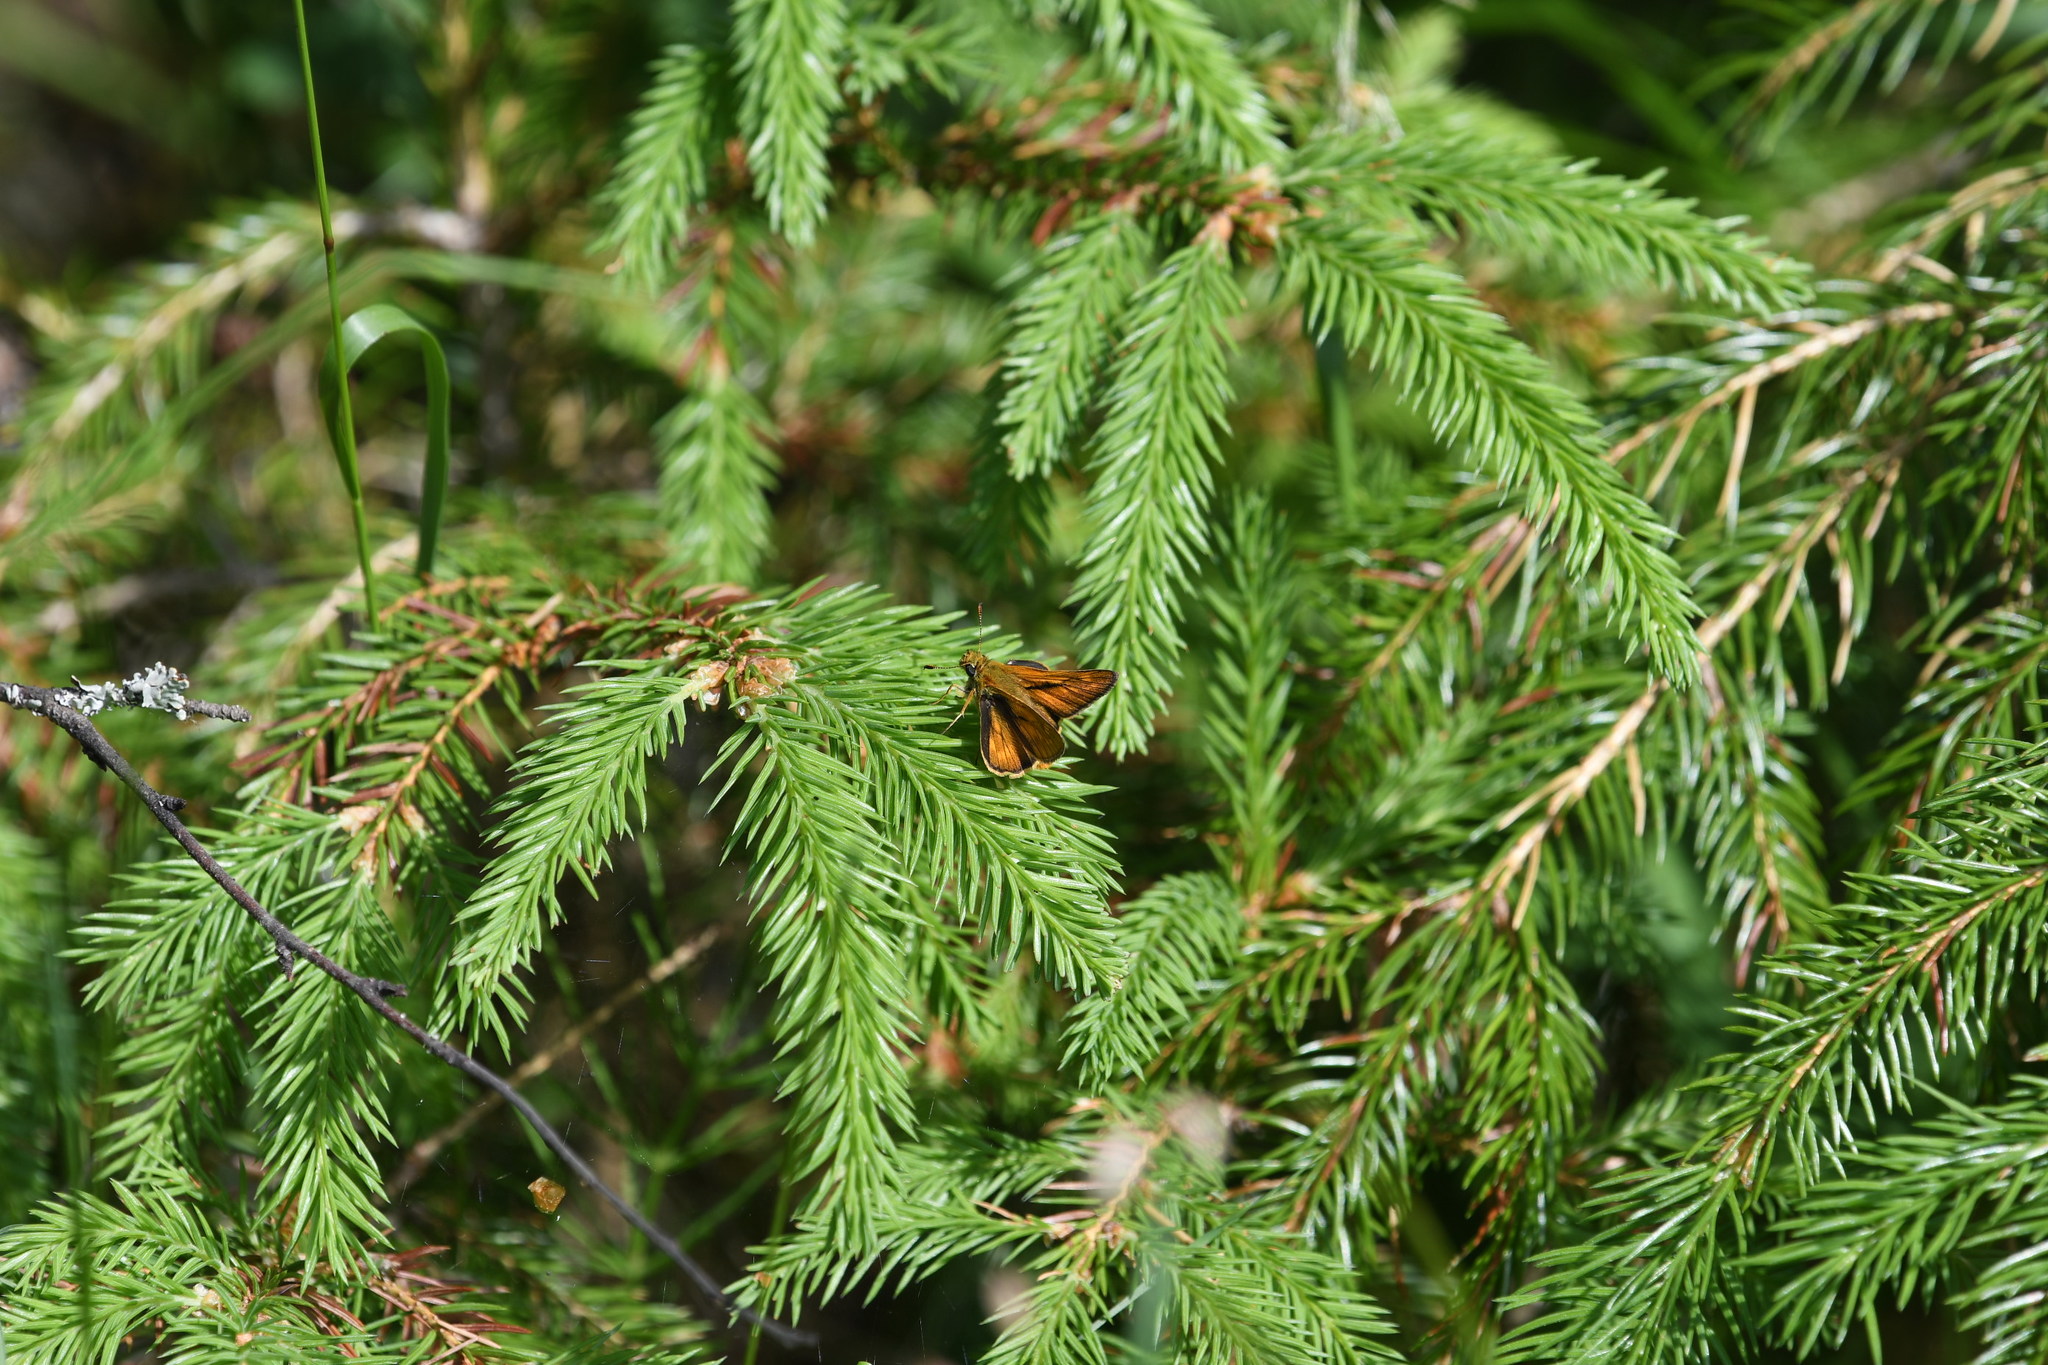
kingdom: Animalia
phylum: Arthropoda
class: Insecta
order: Lepidoptera
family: Hesperiidae
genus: Ochlodes
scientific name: Ochlodes venata
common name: Large skipper
